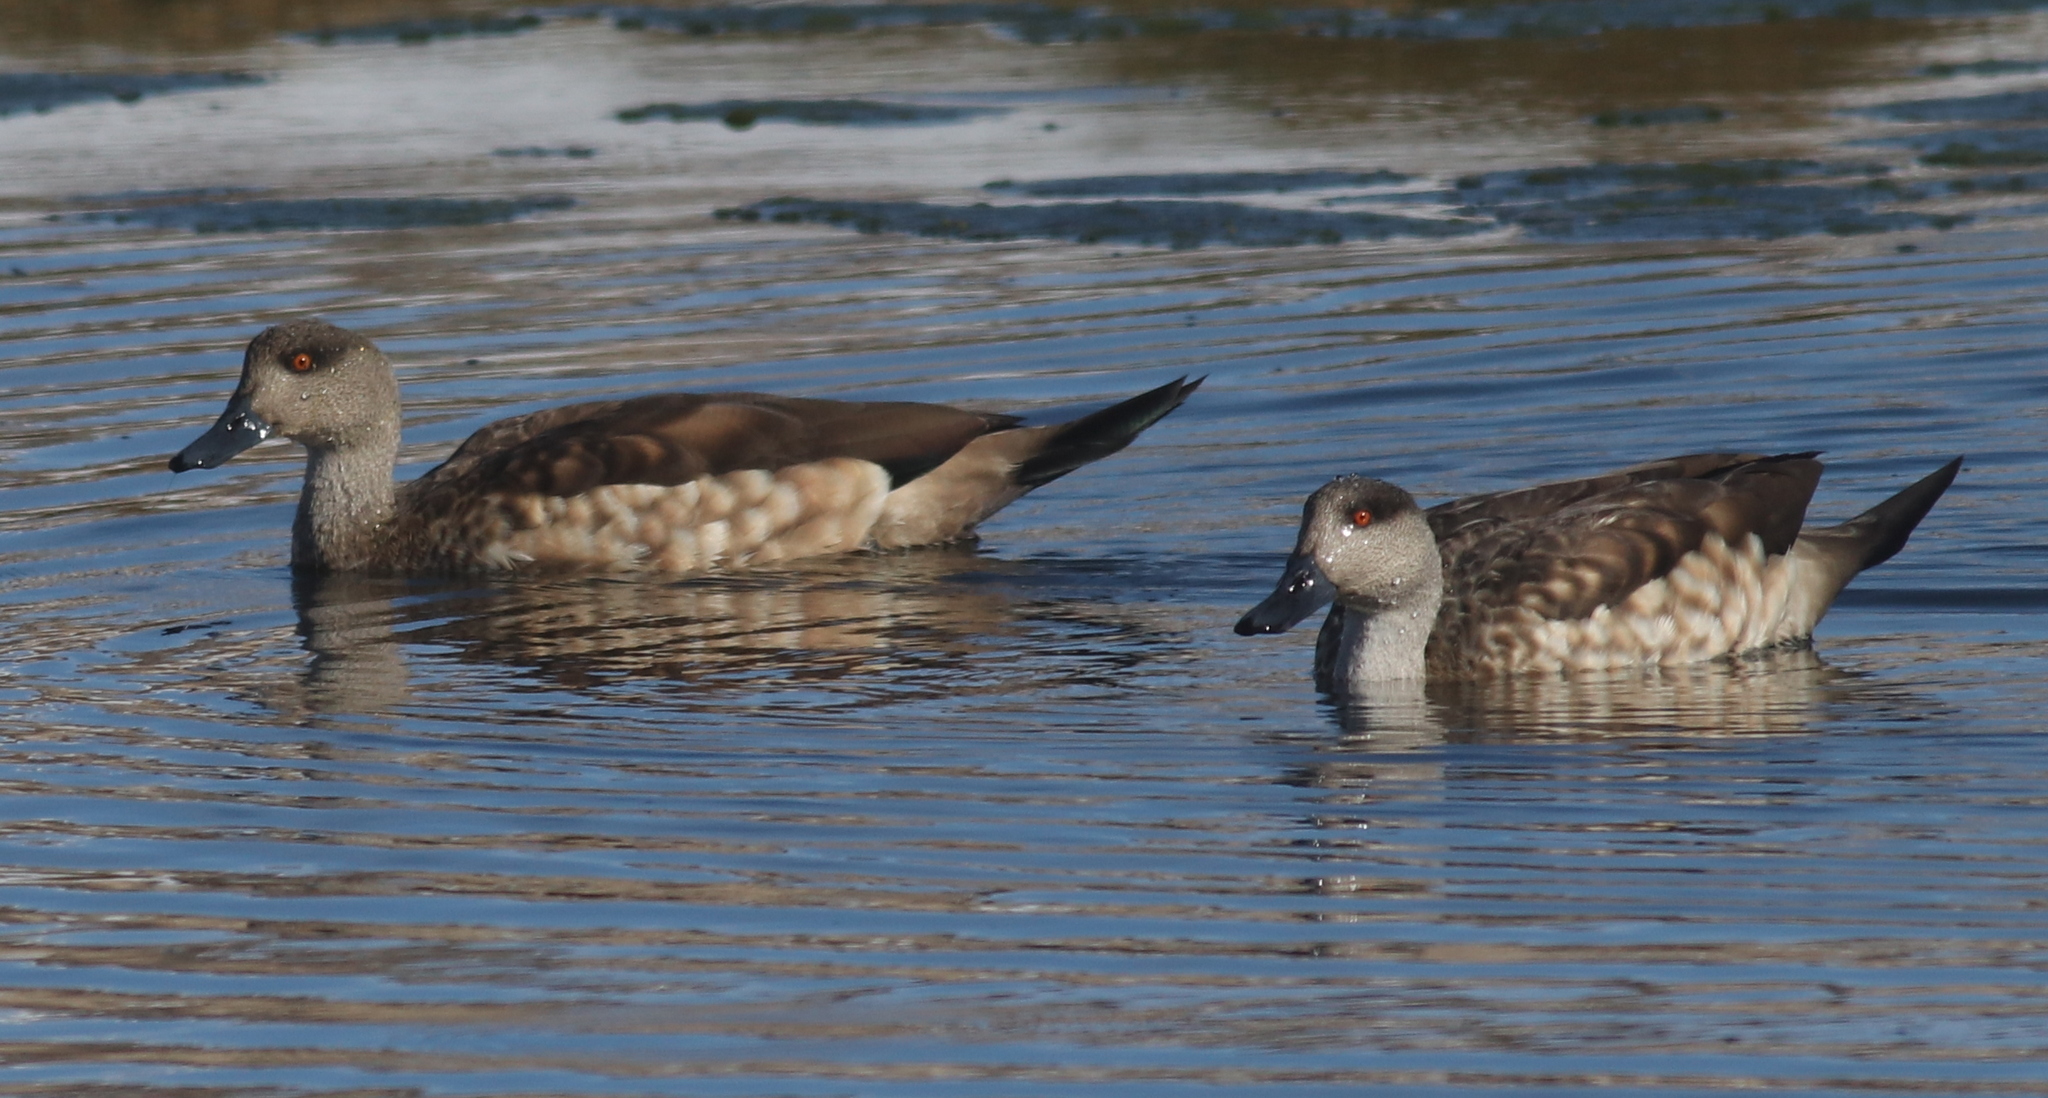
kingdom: Animalia
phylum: Chordata
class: Aves
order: Anseriformes
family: Anatidae
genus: Lophonetta
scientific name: Lophonetta specularioides
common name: Crested duck
